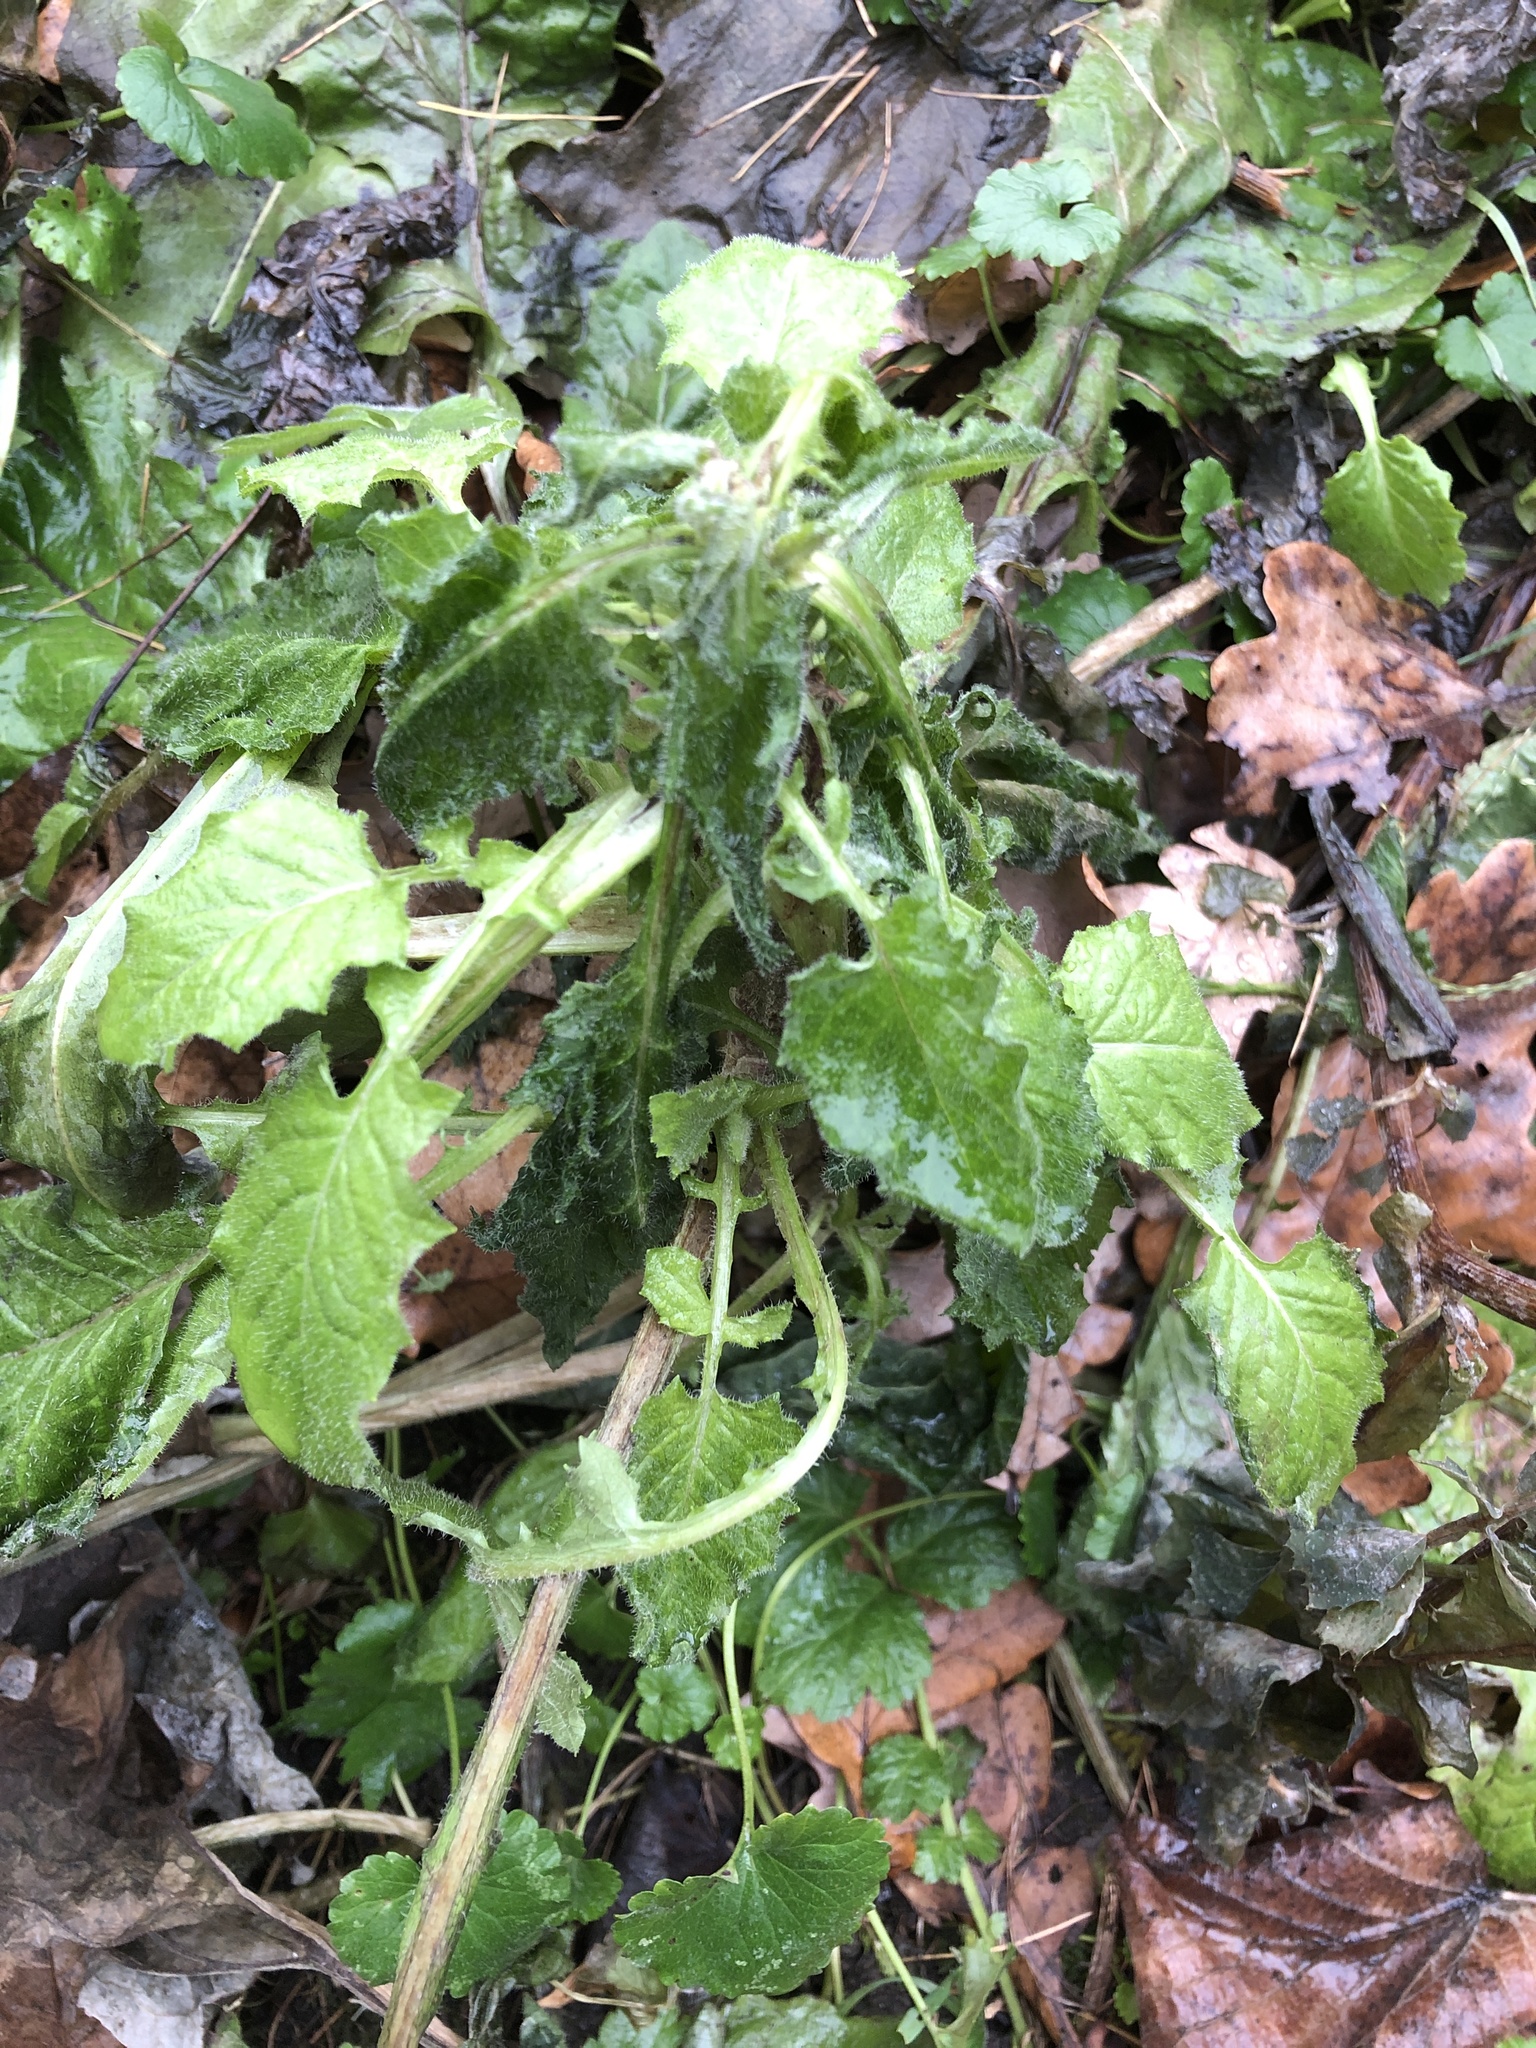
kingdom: Plantae
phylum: Tracheophyta
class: Magnoliopsida
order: Asterales
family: Asteraceae
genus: Lapsana
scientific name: Lapsana communis
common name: Nipplewort
